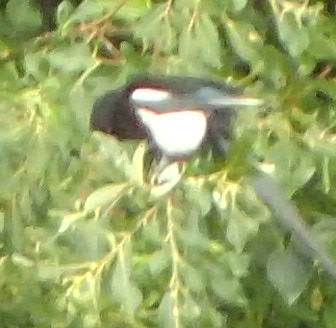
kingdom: Animalia
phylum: Chordata
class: Aves
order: Passeriformes
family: Corvidae
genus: Pica
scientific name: Pica hudsonia
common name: Black-billed magpie
